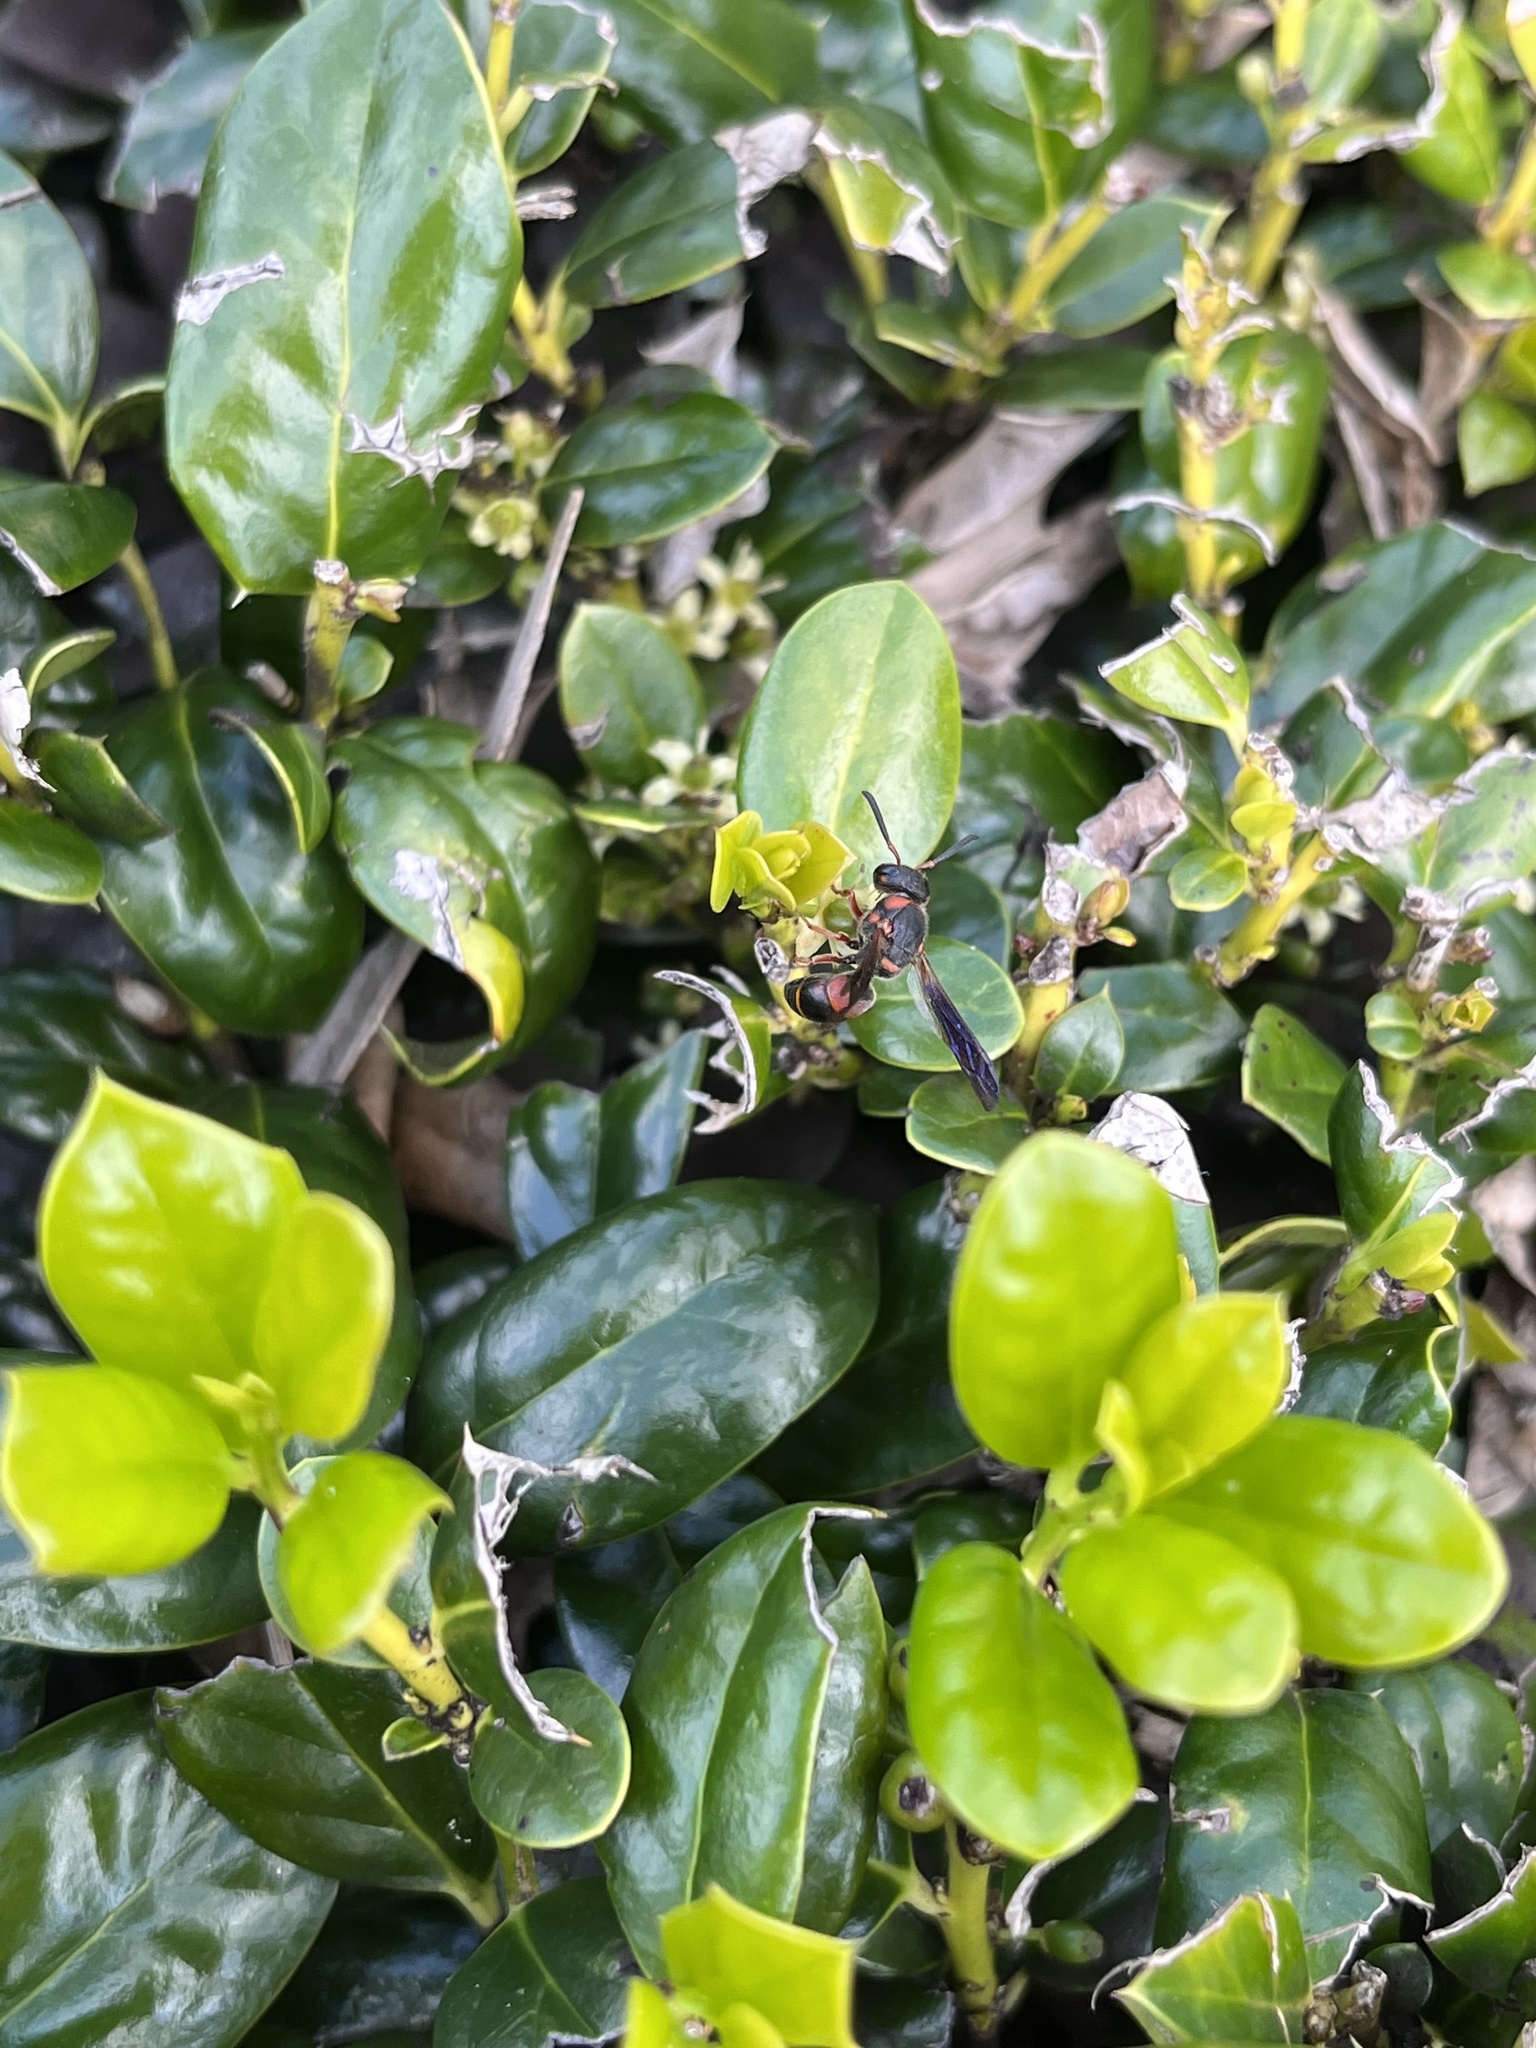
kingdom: Animalia
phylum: Arthropoda
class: Insecta
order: Hymenoptera
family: Eumenidae
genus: Euodynerus
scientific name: Euodynerus
